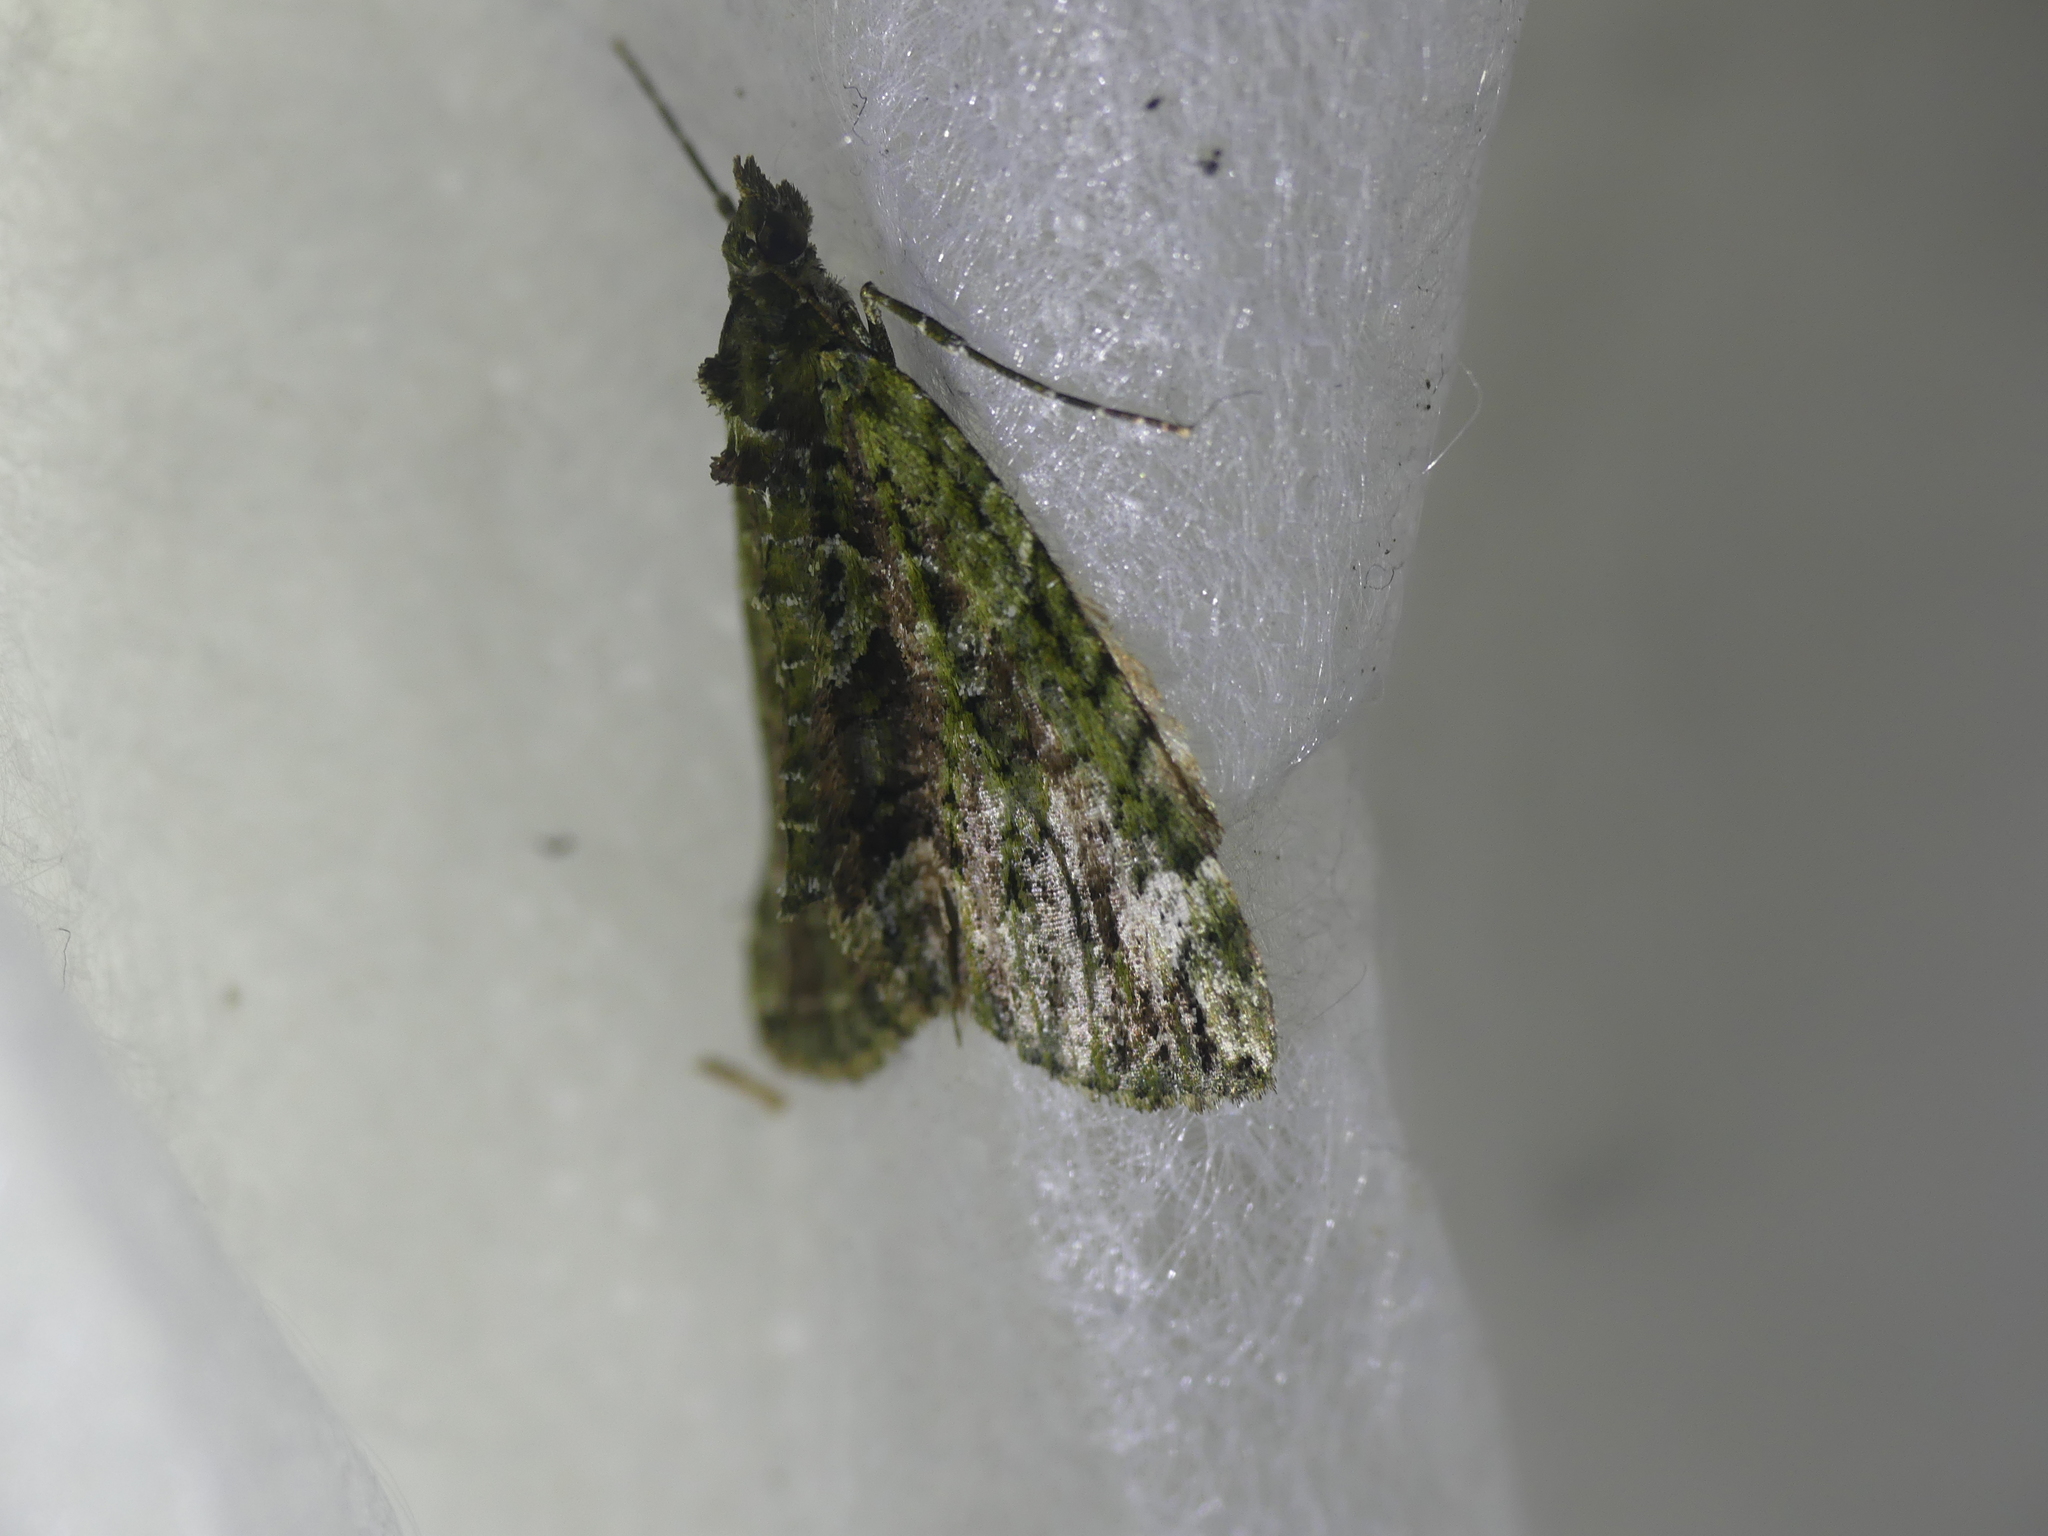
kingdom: Animalia
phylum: Arthropoda
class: Insecta
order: Lepidoptera
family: Geometridae
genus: Chloroclysta
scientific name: Chloroclysta siterata
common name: Red-green carpet
